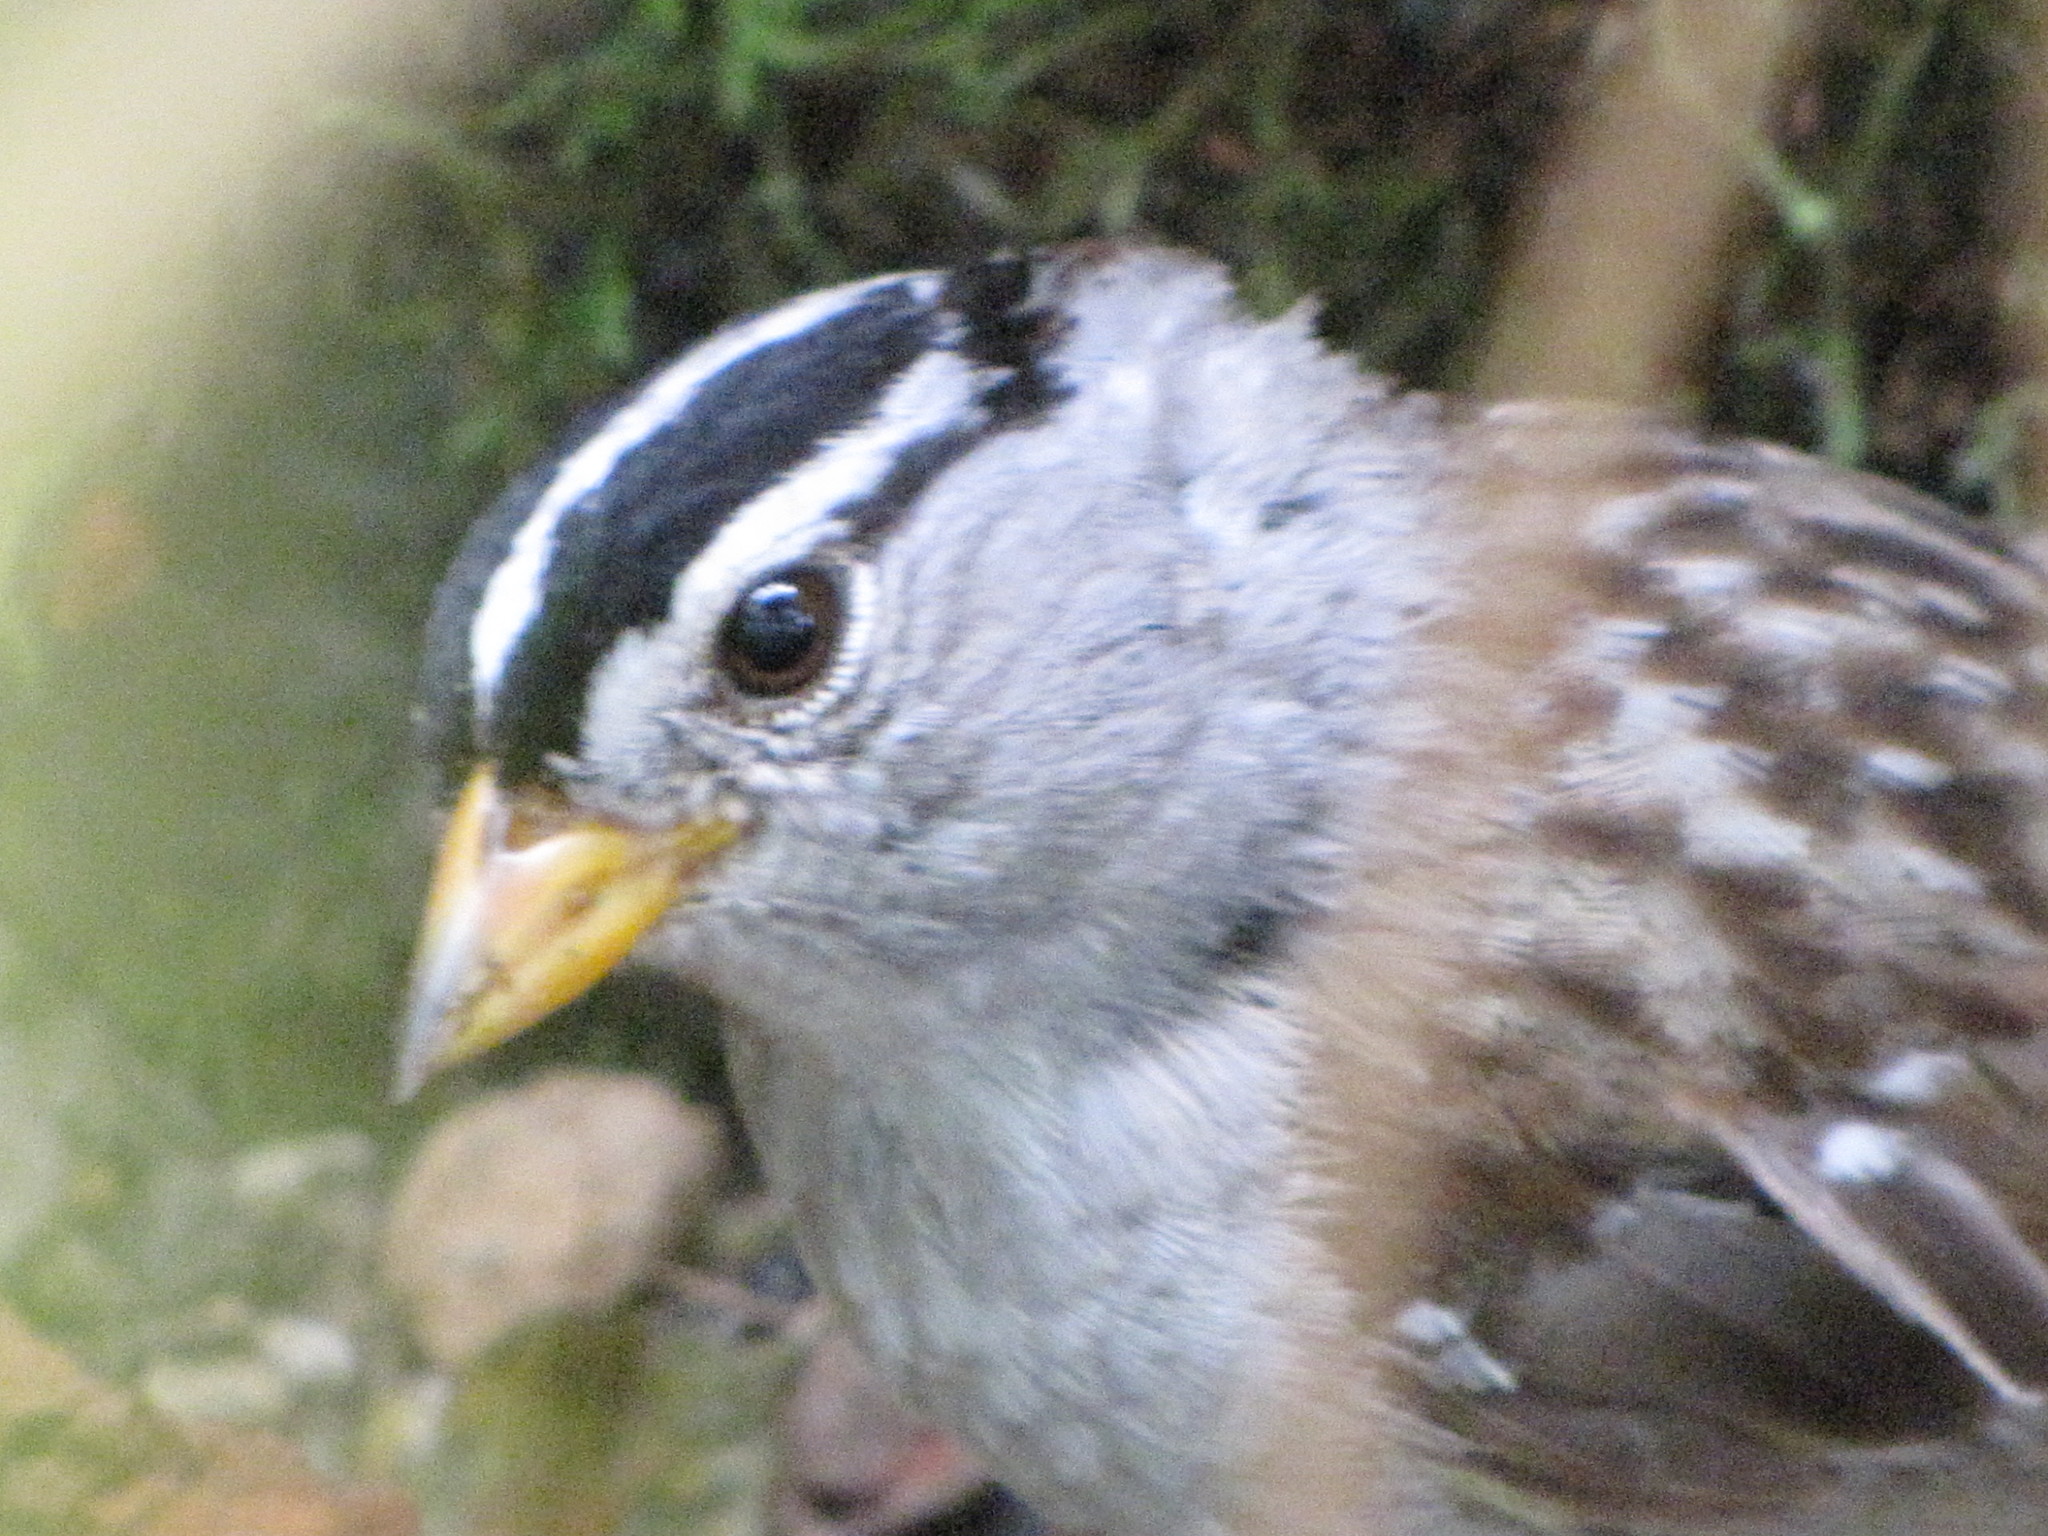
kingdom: Animalia
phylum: Chordata
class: Aves
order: Passeriformes
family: Passerellidae
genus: Zonotrichia
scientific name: Zonotrichia leucophrys
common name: White-crowned sparrow
